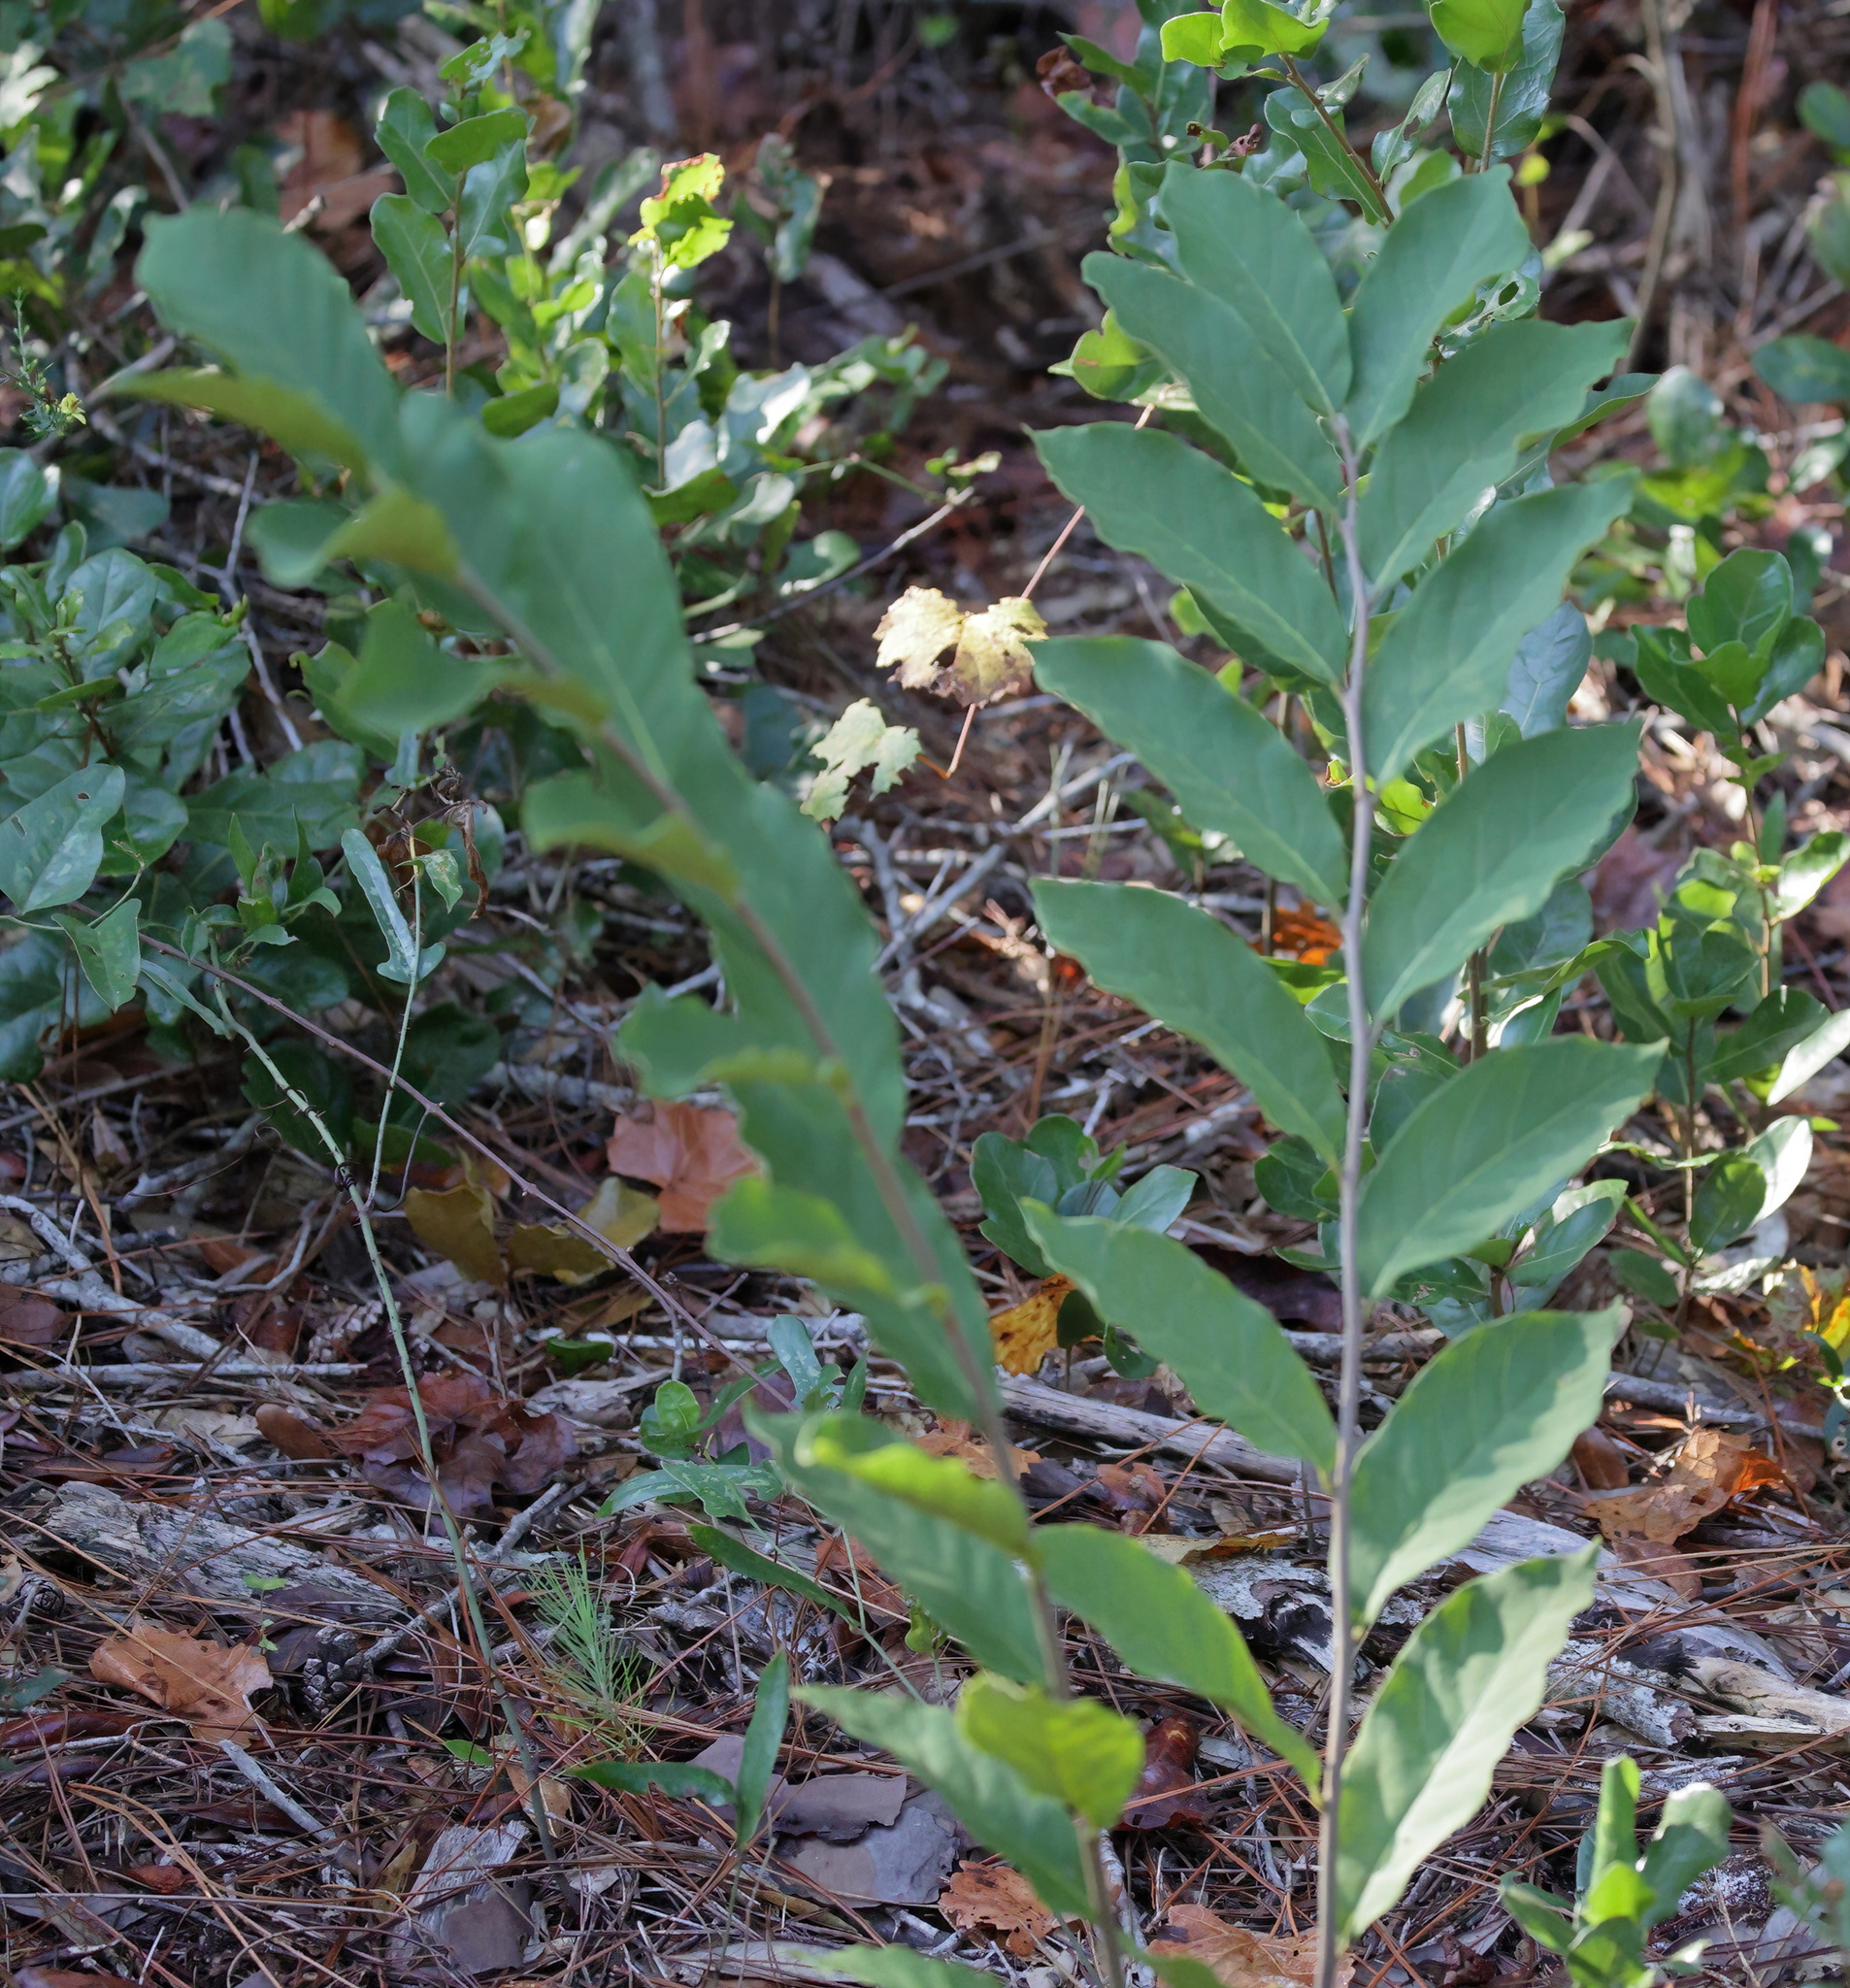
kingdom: Plantae
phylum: Tracheophyta
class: Magnoliopsida
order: Magnoliales
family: Annonaceae
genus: Asimina
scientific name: Asimina parviflora
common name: Dwarf pawpaw
